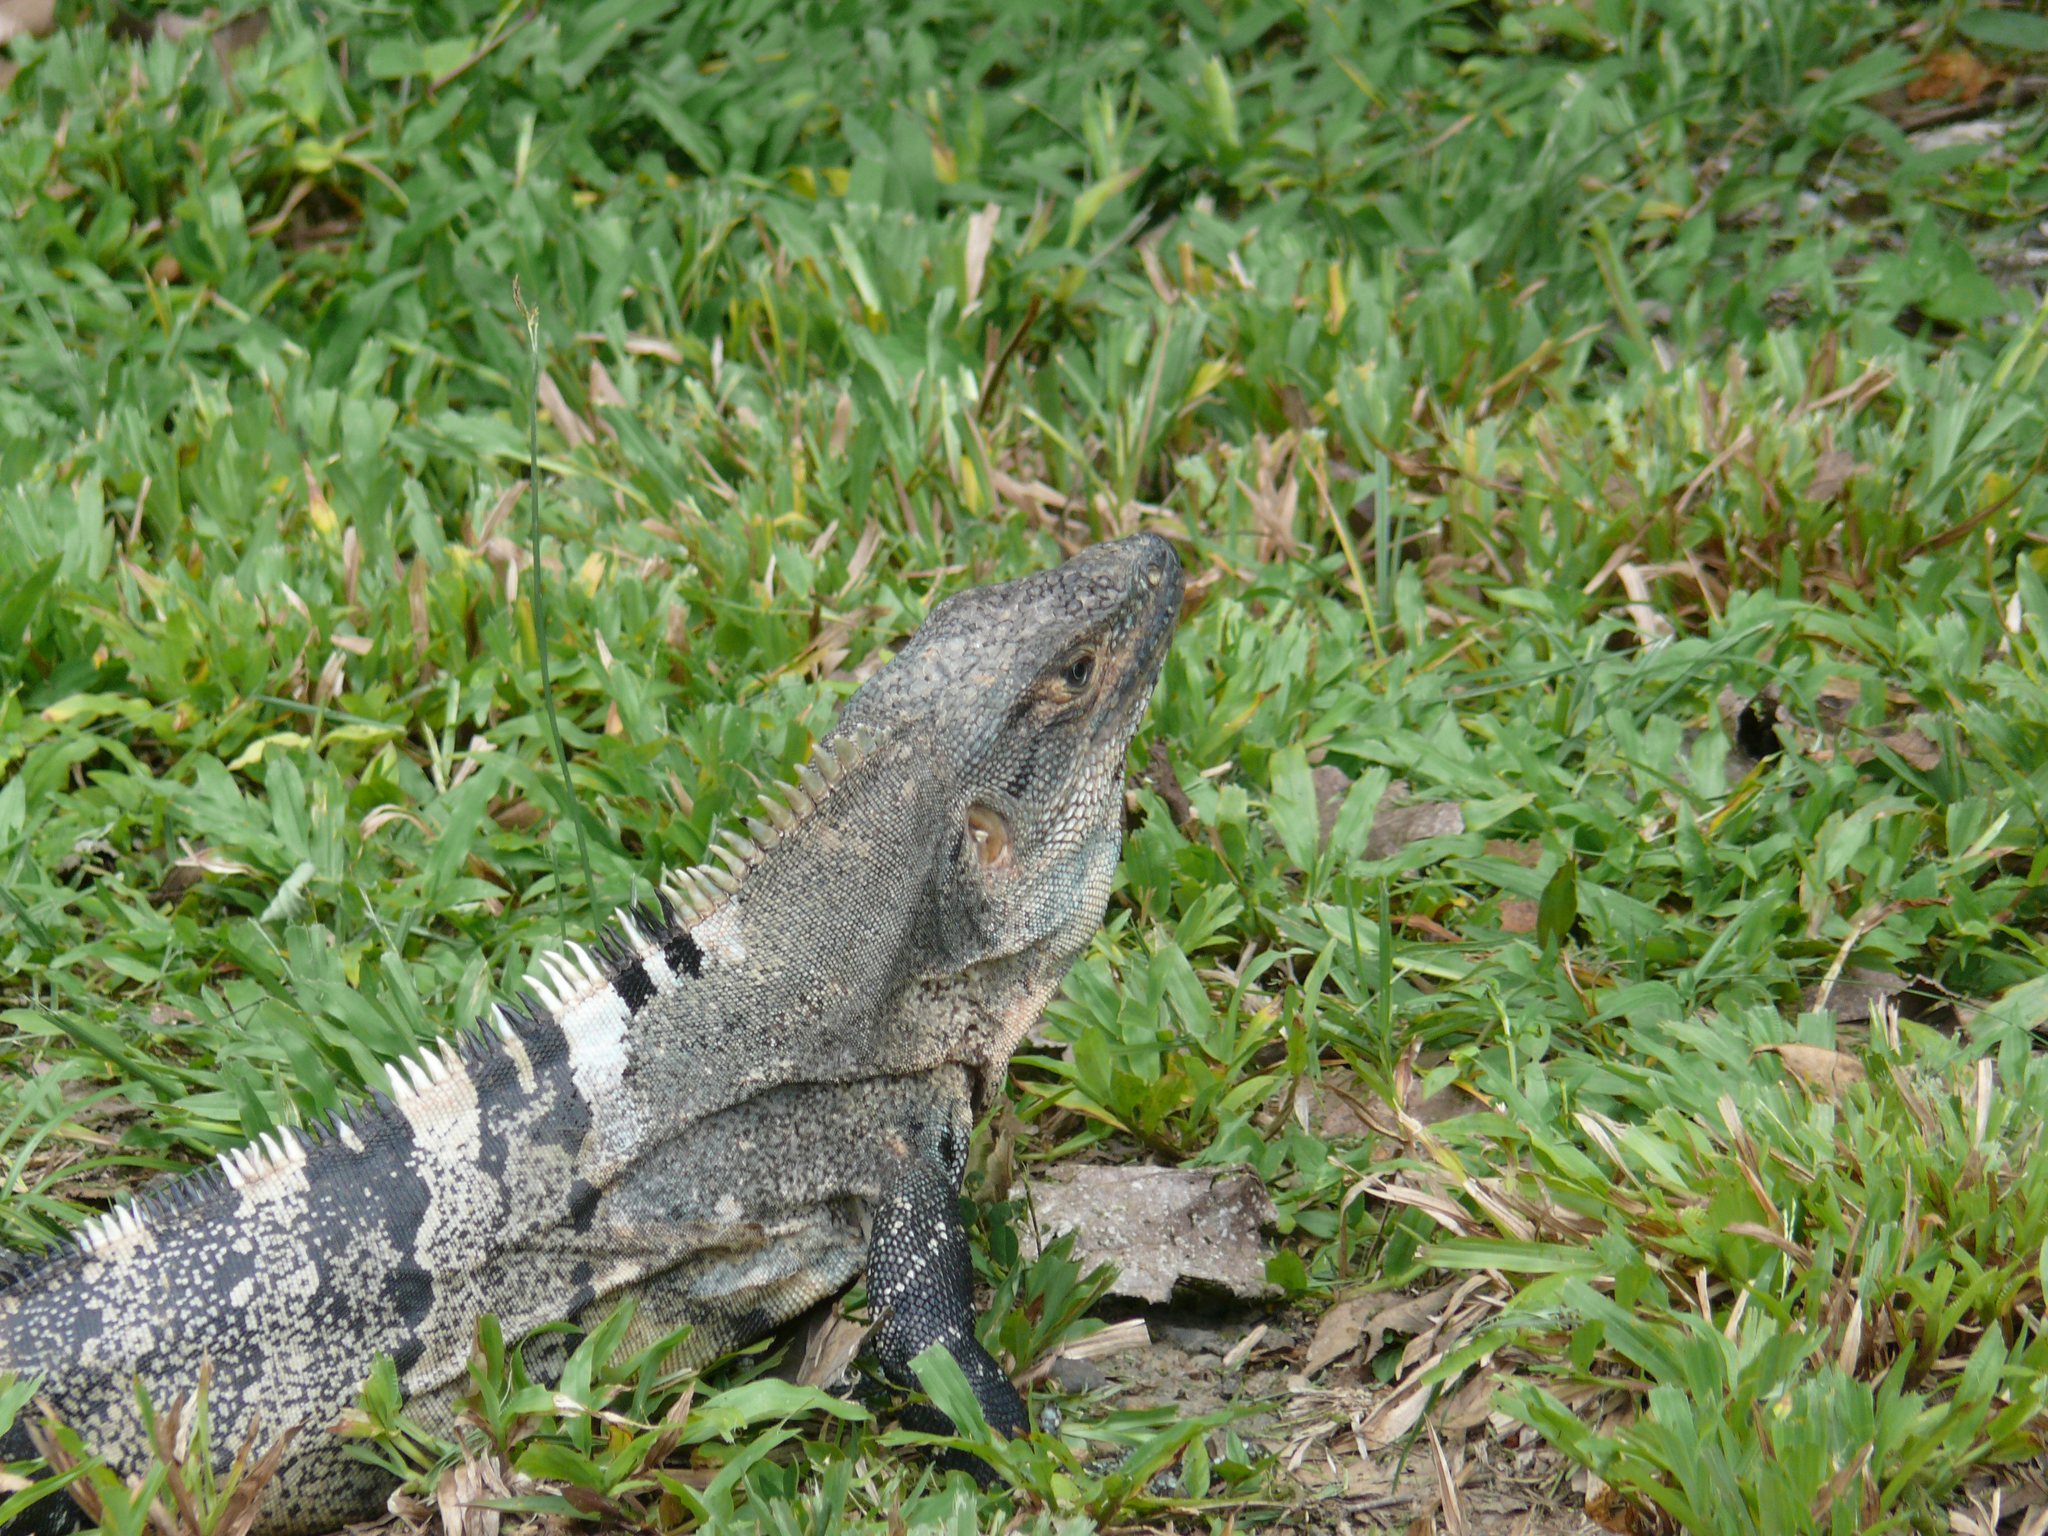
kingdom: Animalia
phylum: Chordata
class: Squamata
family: Iguanidae
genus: Ctenosaura
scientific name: Ctenosaura similis
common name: Black spiny-tailed iguana
